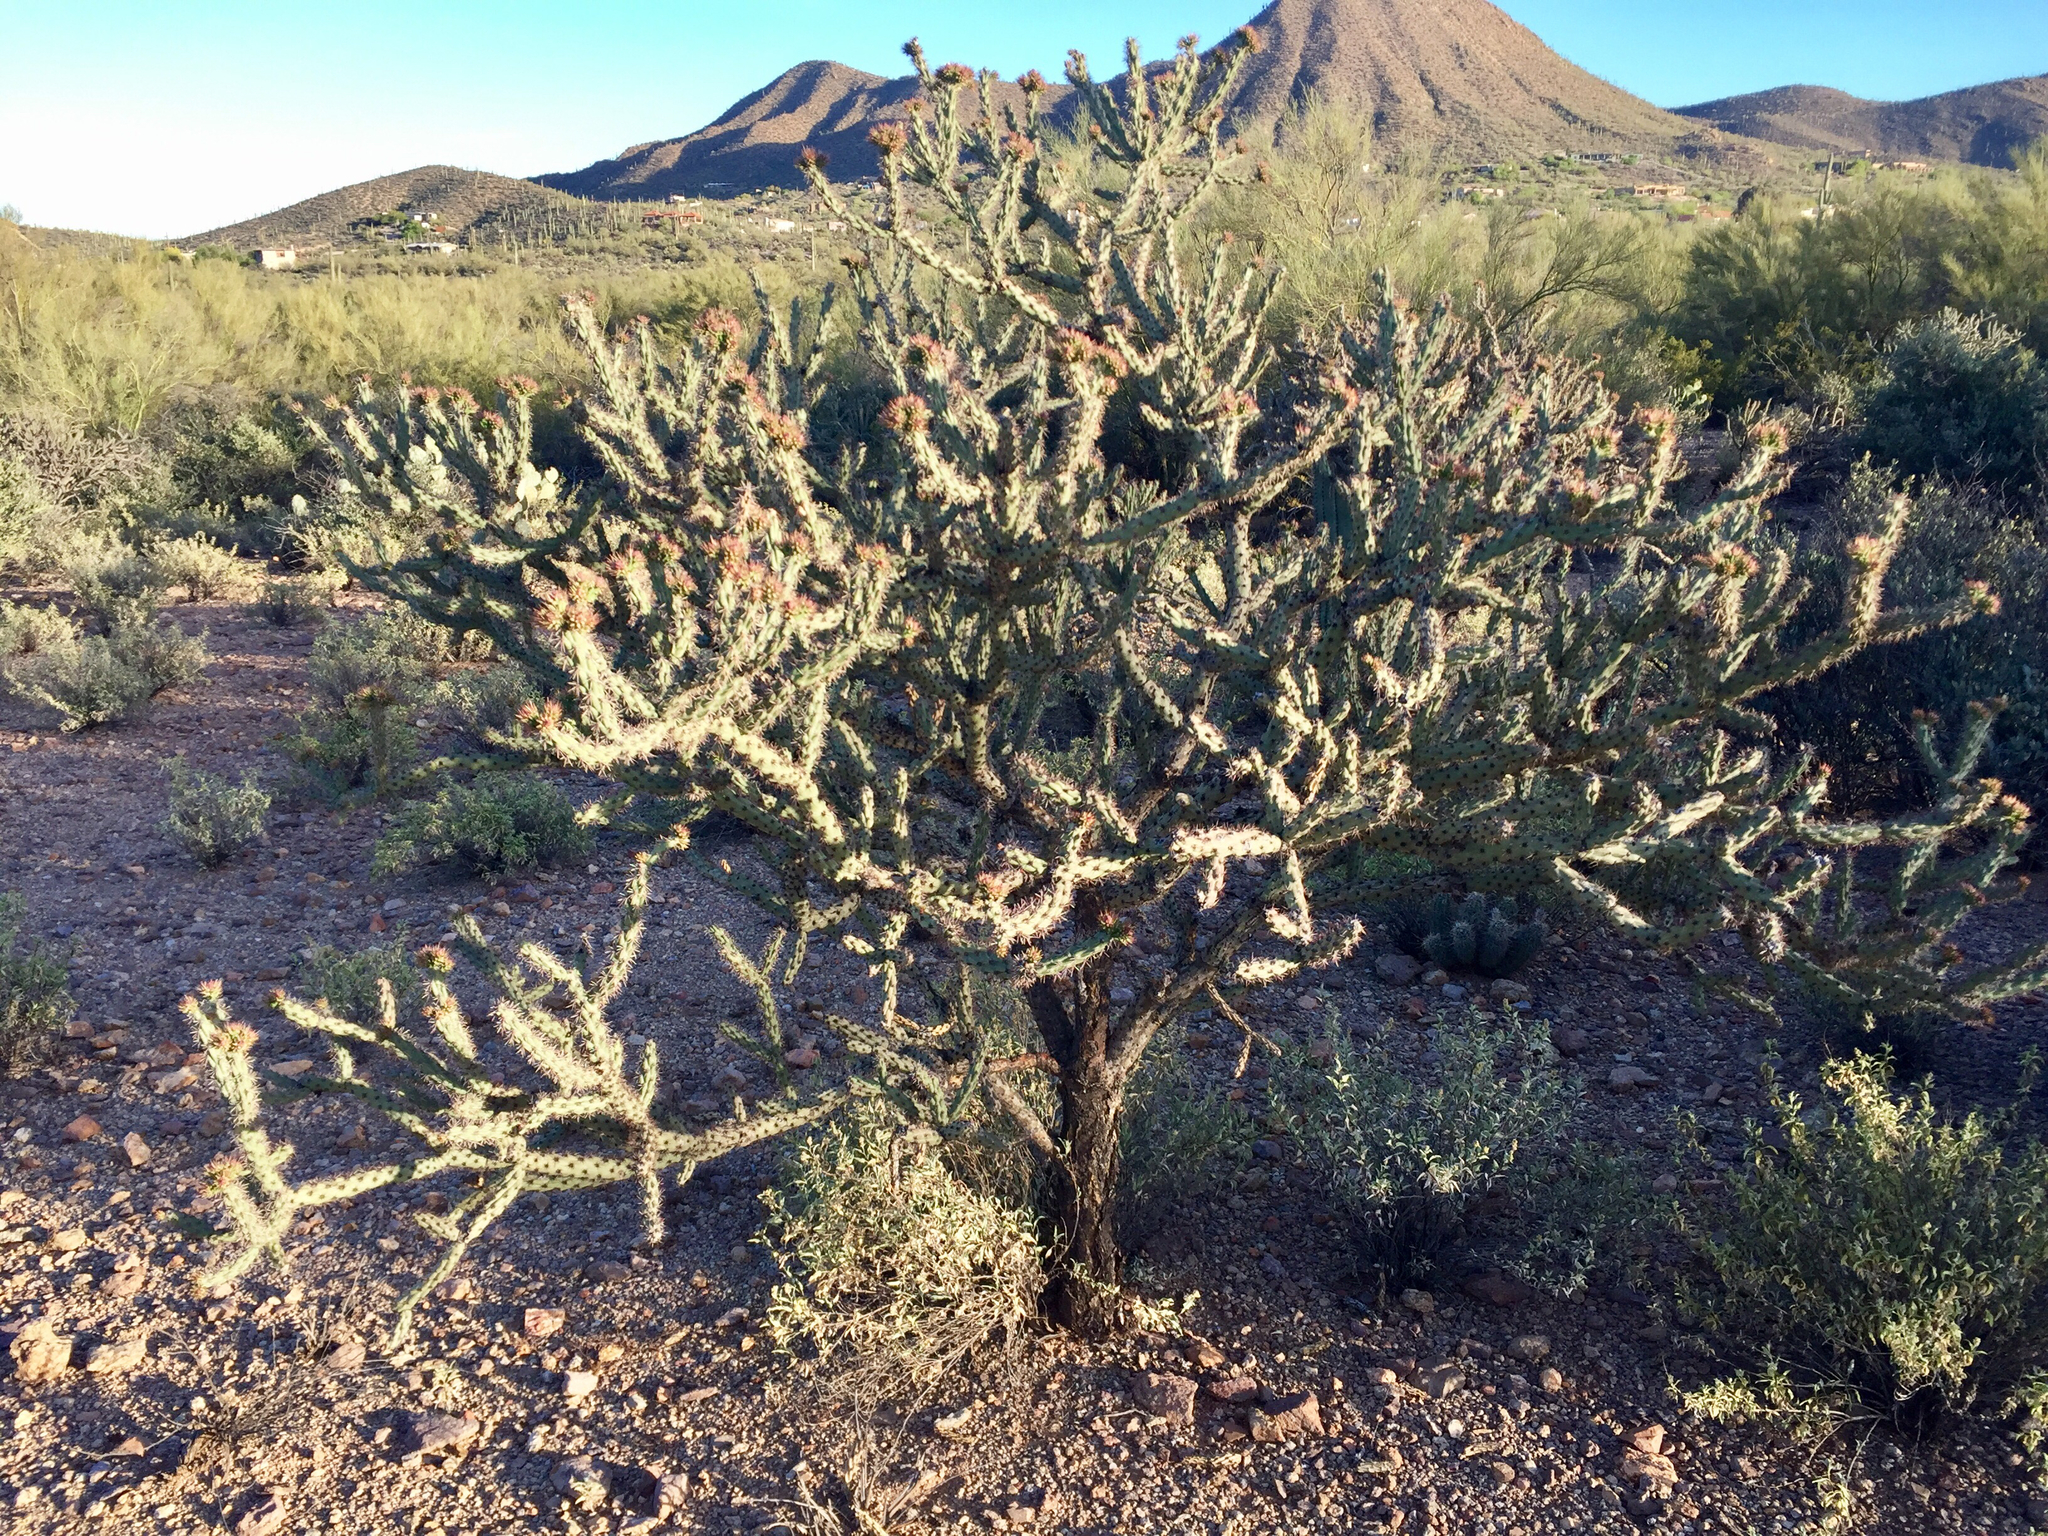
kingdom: Plantae
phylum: Tracheophyta
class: Magnoliopsida
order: Caryophyllales
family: Cactaceae
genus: Cylindropuntia
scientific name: Cylindropuntia acanthocarpa
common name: Buckhorn cholla
